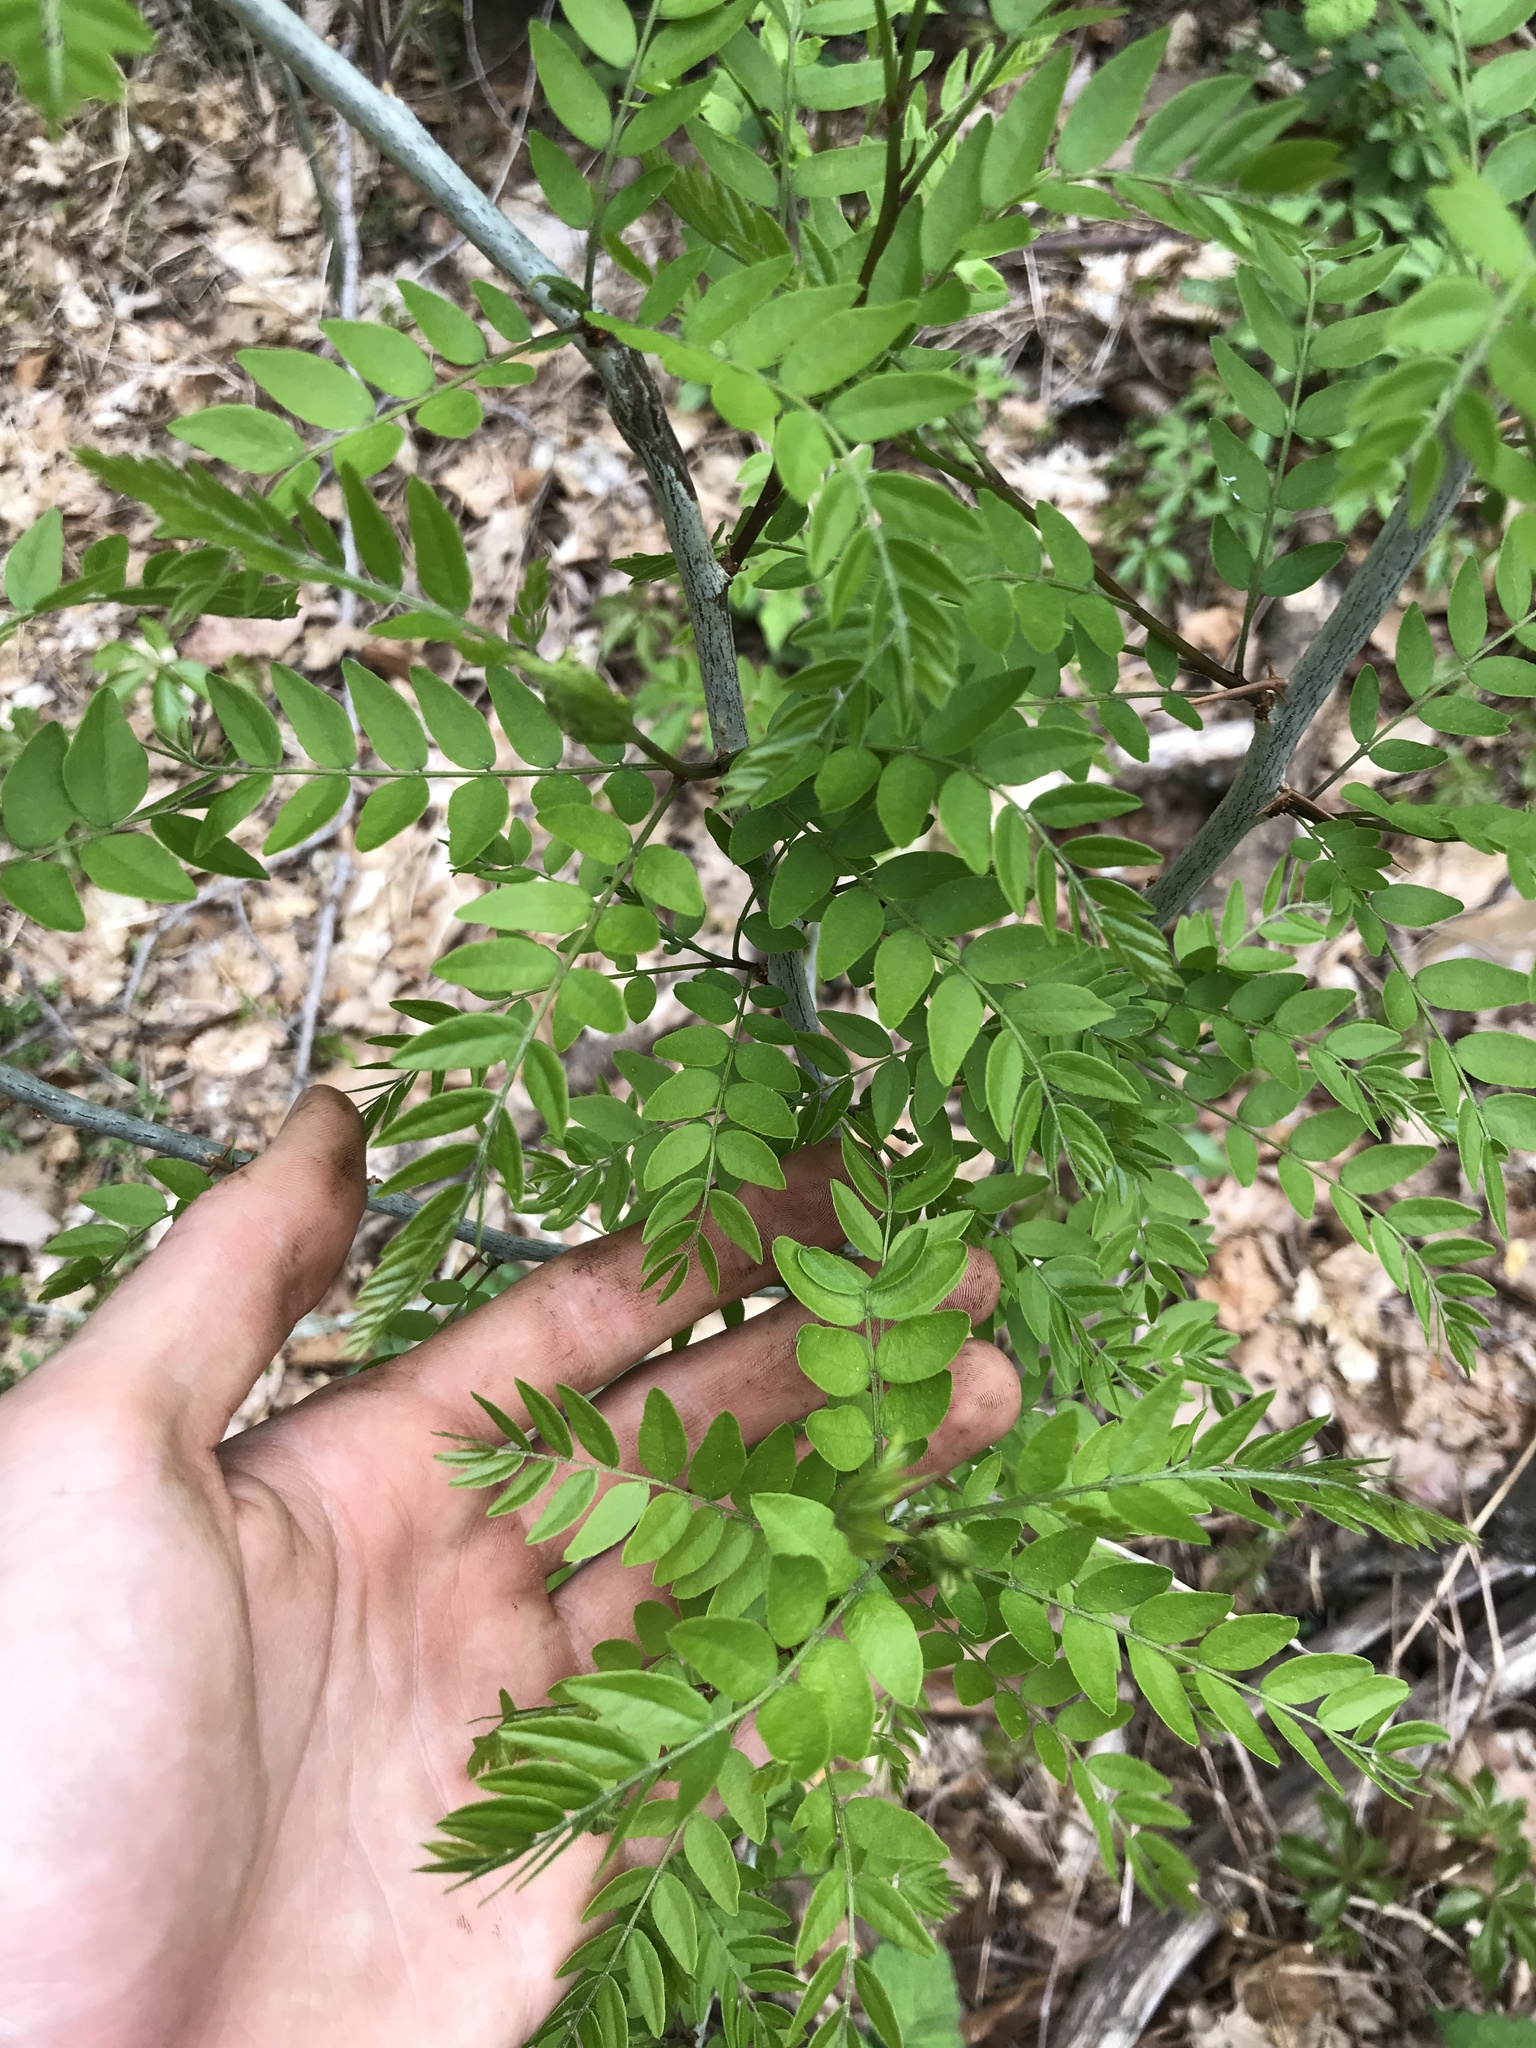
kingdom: Plantae
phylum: Tracheophyta
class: Magnoliopsida
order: Fabales
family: Fabaceae
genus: Gleditsia
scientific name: Gleditsia triacanthos
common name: Common honeylocust
